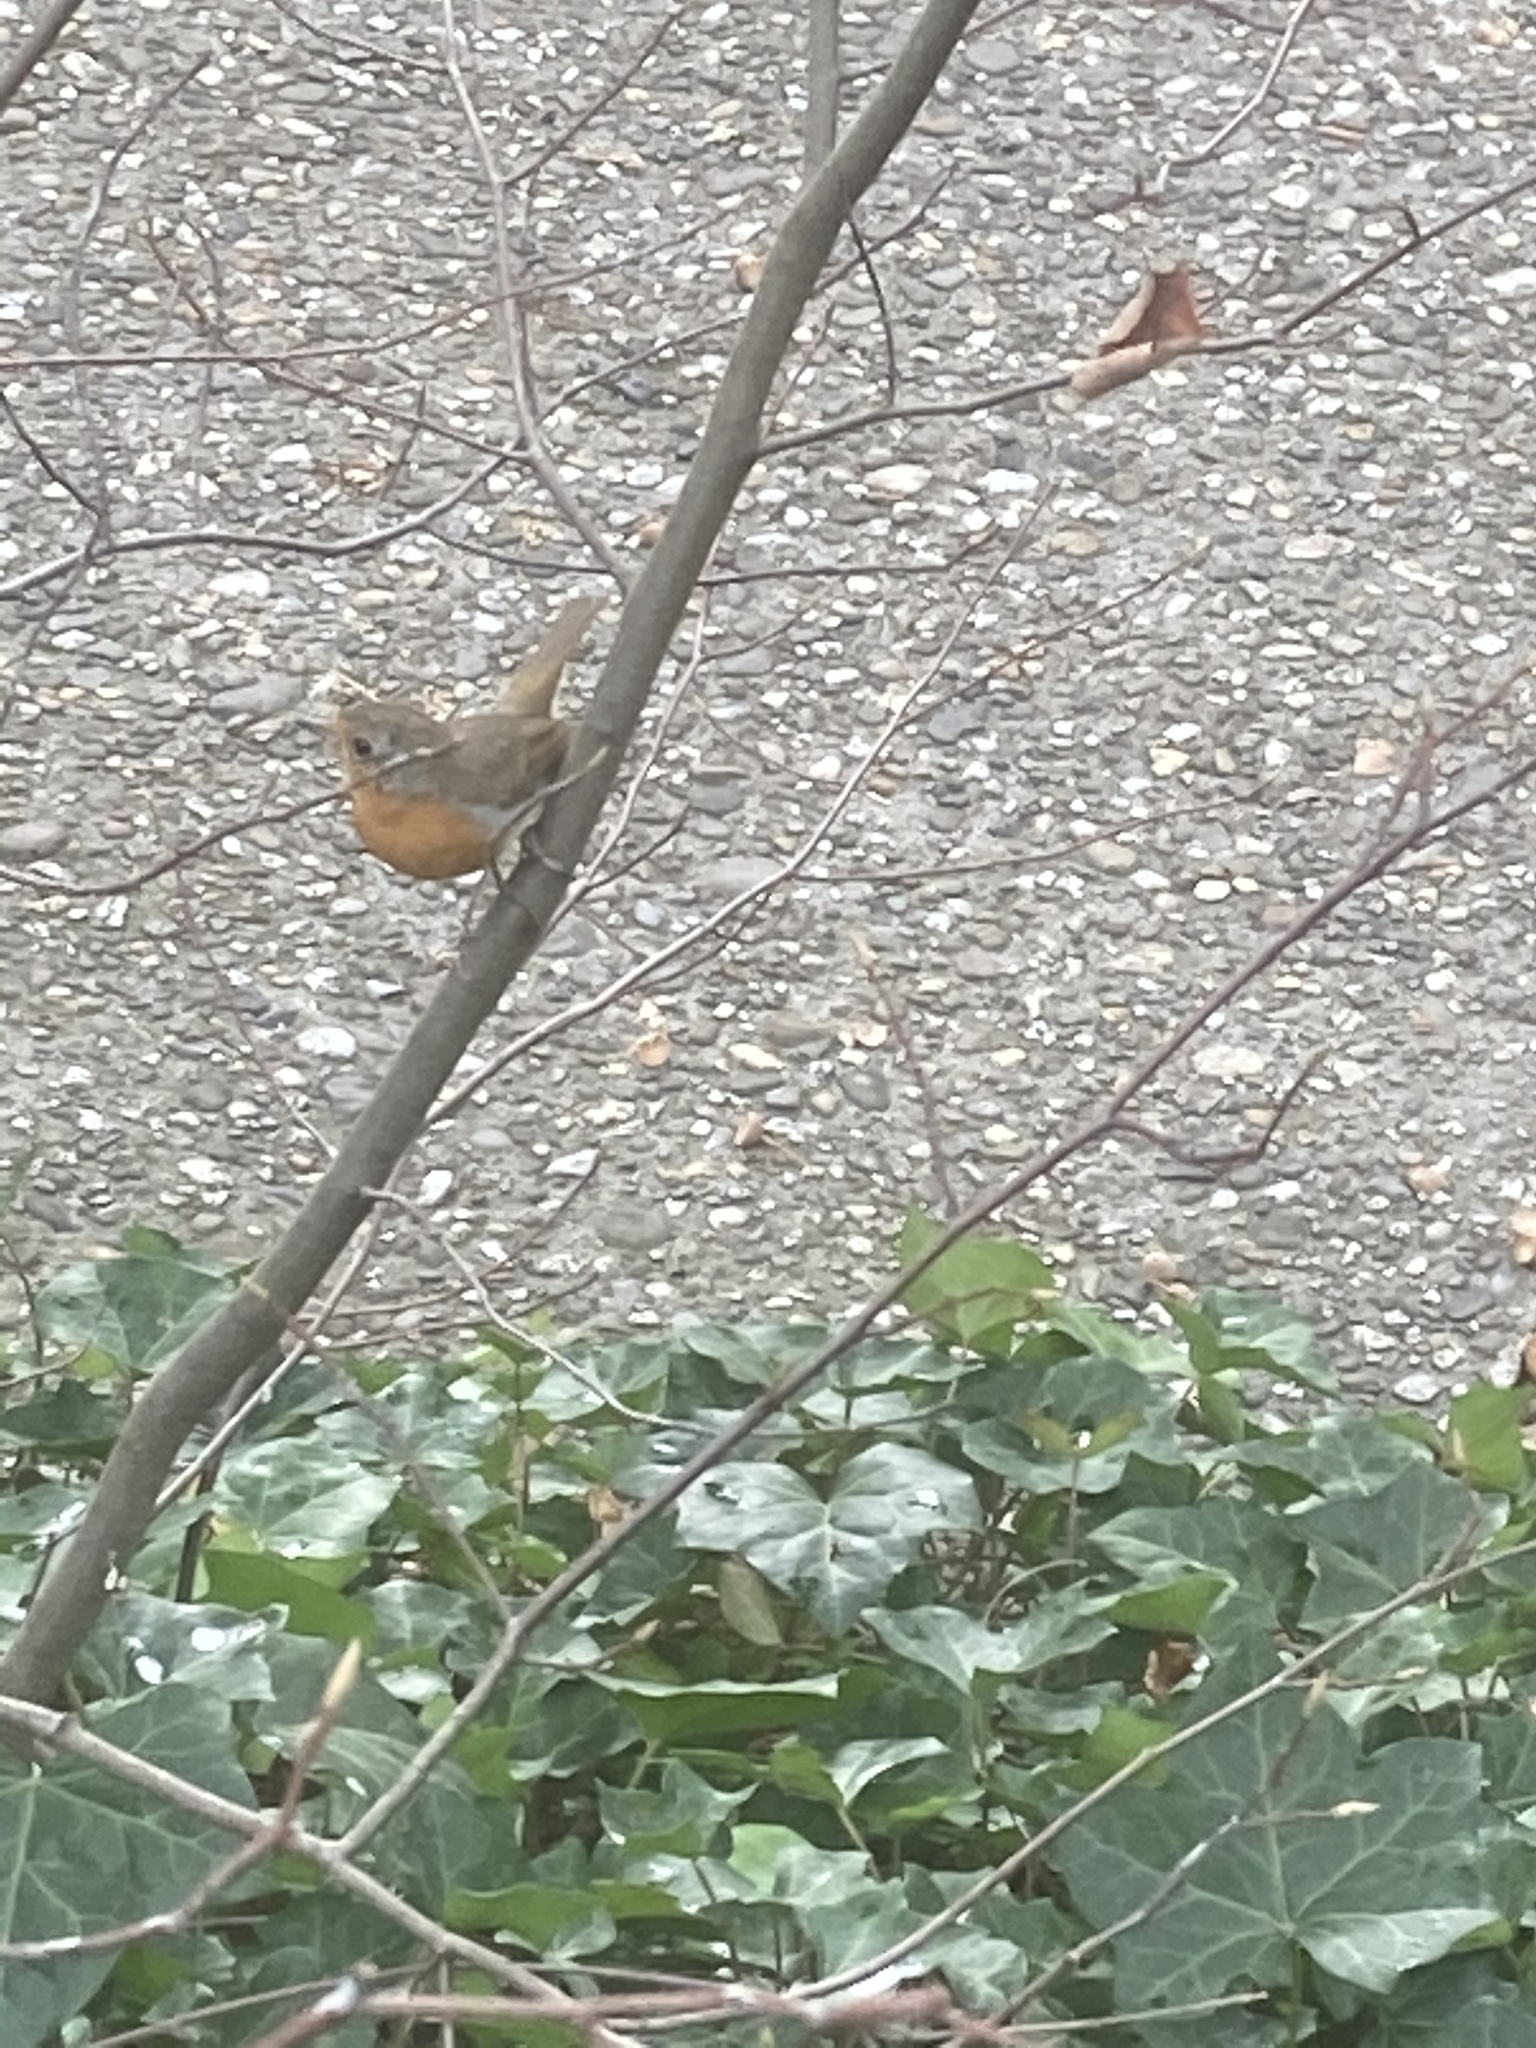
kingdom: Animalia
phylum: Chordata
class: Aves
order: Passeriformes
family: Muscicapidae
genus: Erithacus
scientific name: Erithacus rubecula
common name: European robin
